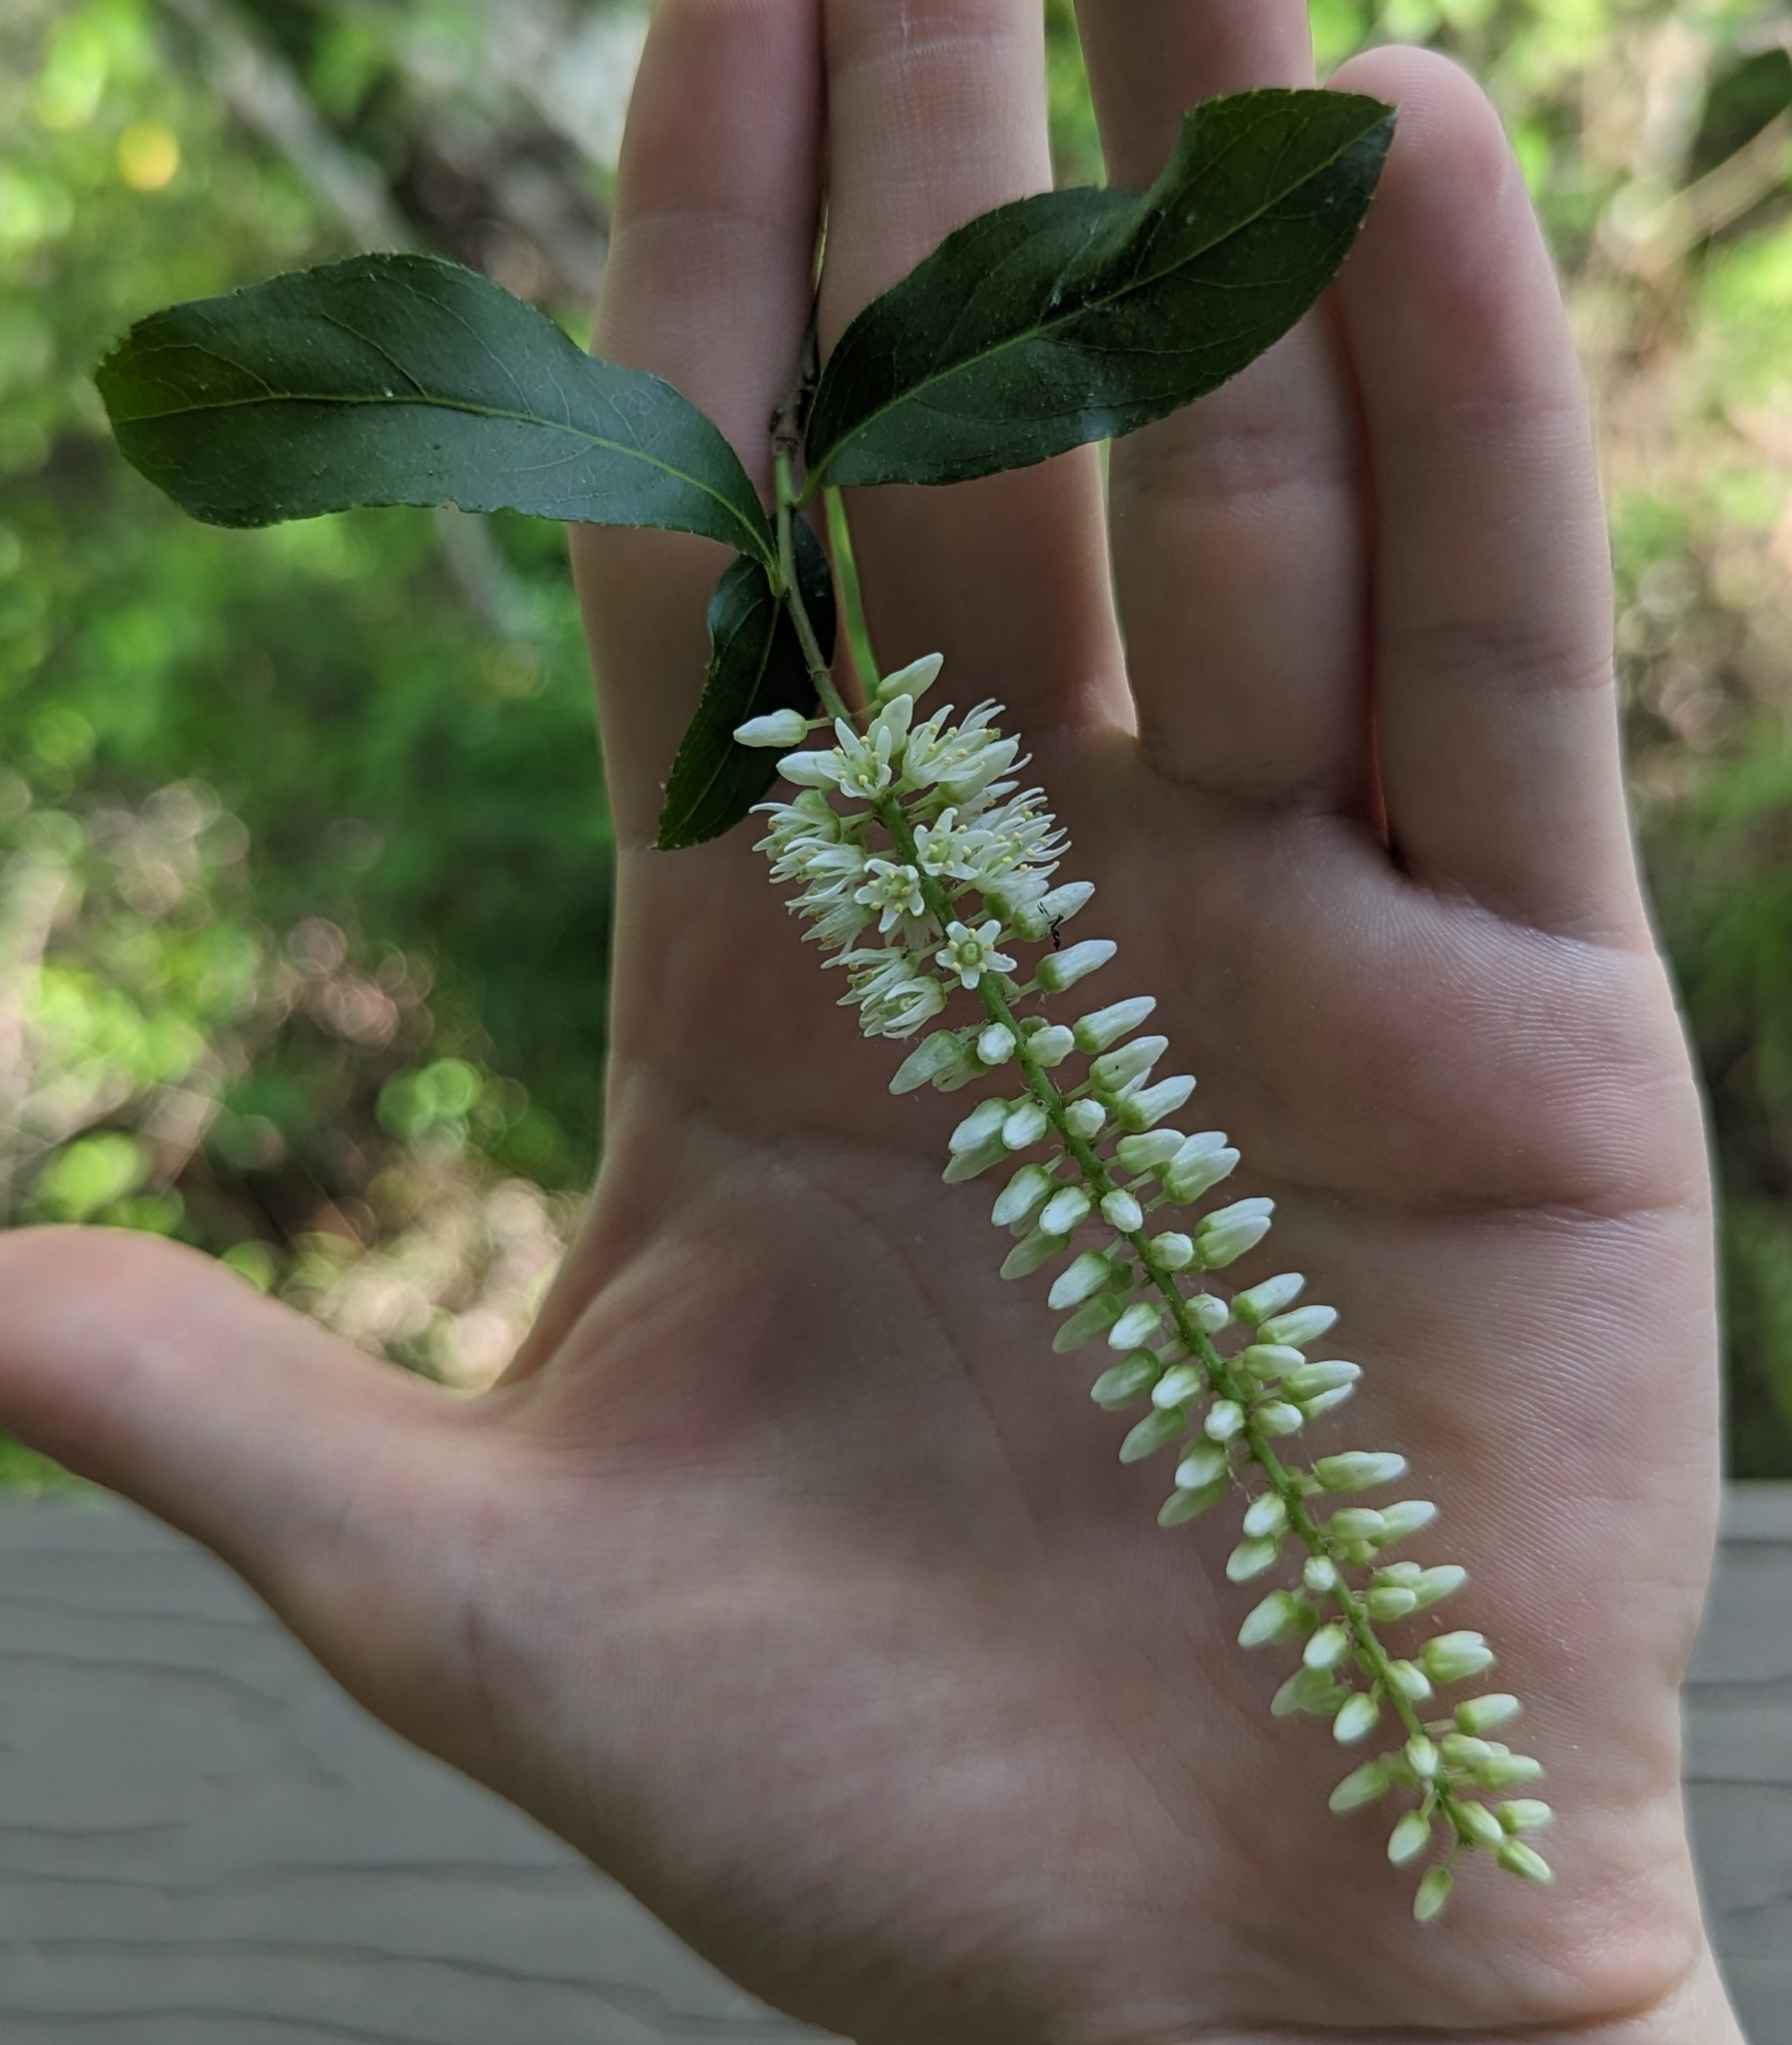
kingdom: Plantae
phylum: Tracheophyta
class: Magnoliopsida
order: Saxifragales
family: Iteaceae
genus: Itea
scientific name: Itea virginica
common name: Sweetspire
